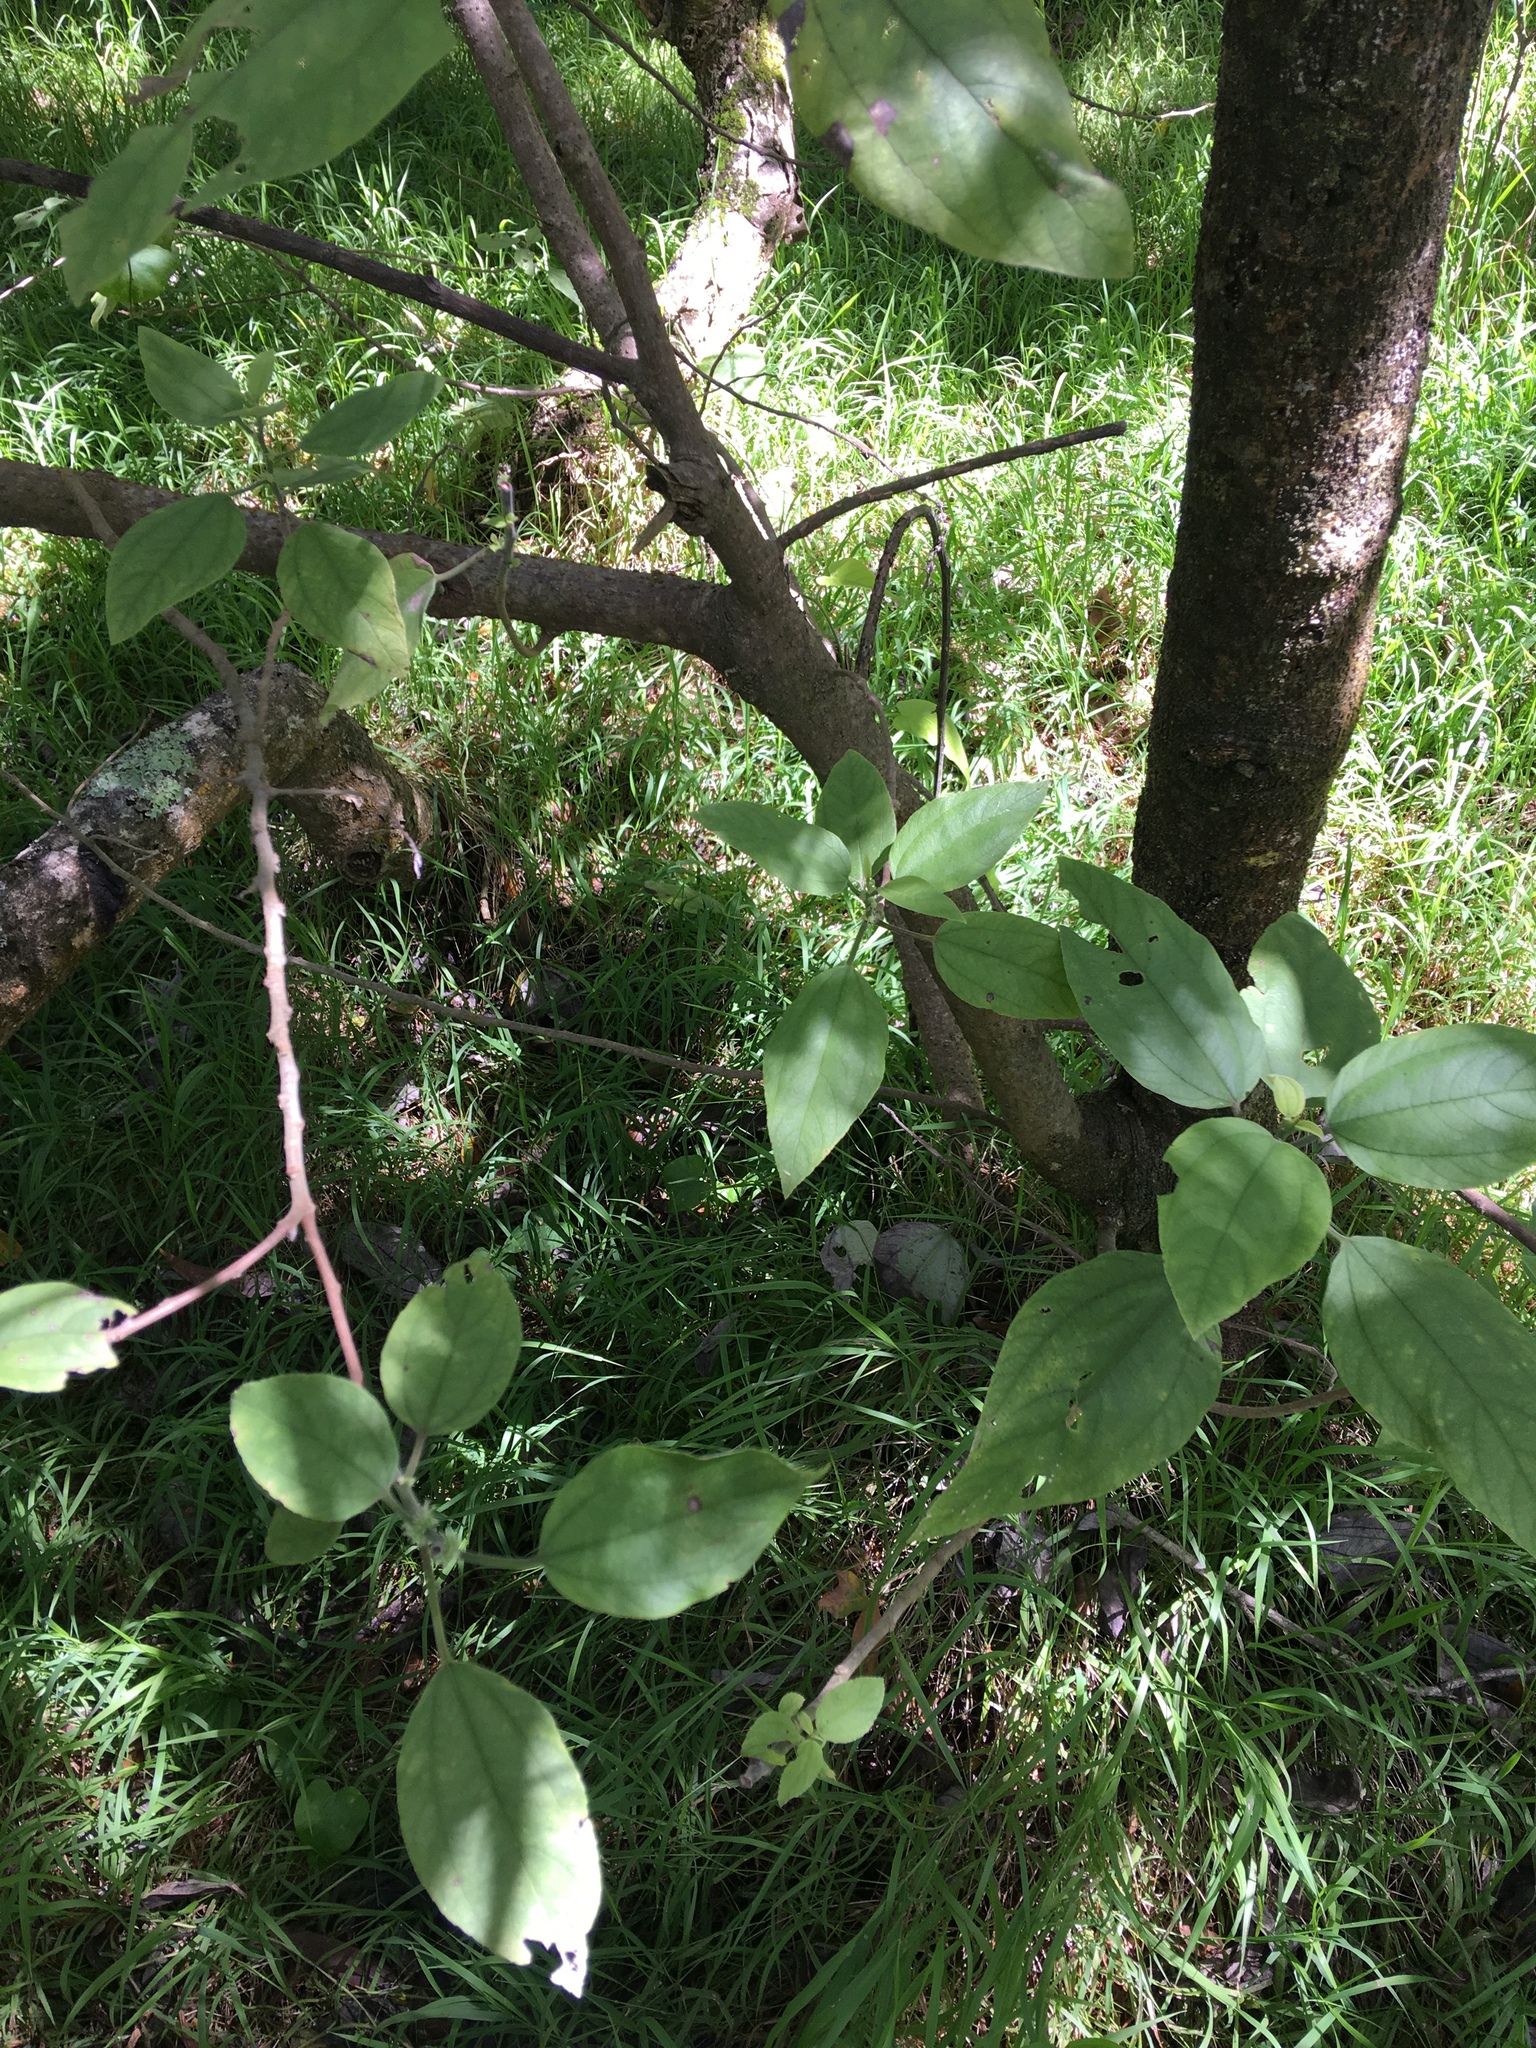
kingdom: Plantae
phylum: Tracheophyta
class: Magnoliopsida
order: Rosales
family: Urticaceae
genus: Pipturus
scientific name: Pipturus albidus
